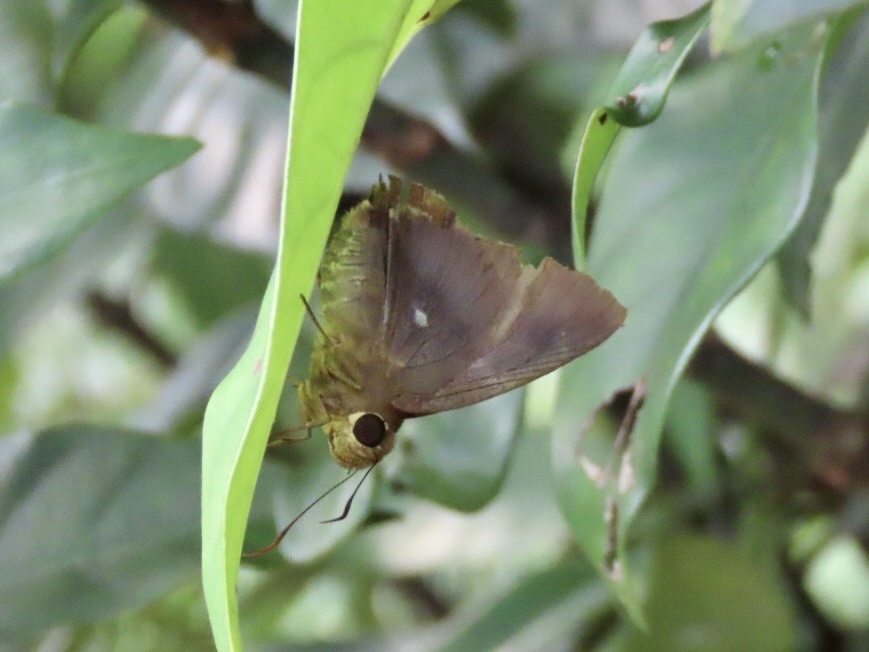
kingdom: Animalia
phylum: Arthropoda
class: Insecta
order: Lepidoptera
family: Hesperiidae
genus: Hasora
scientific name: Hasora badra
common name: Common awl
